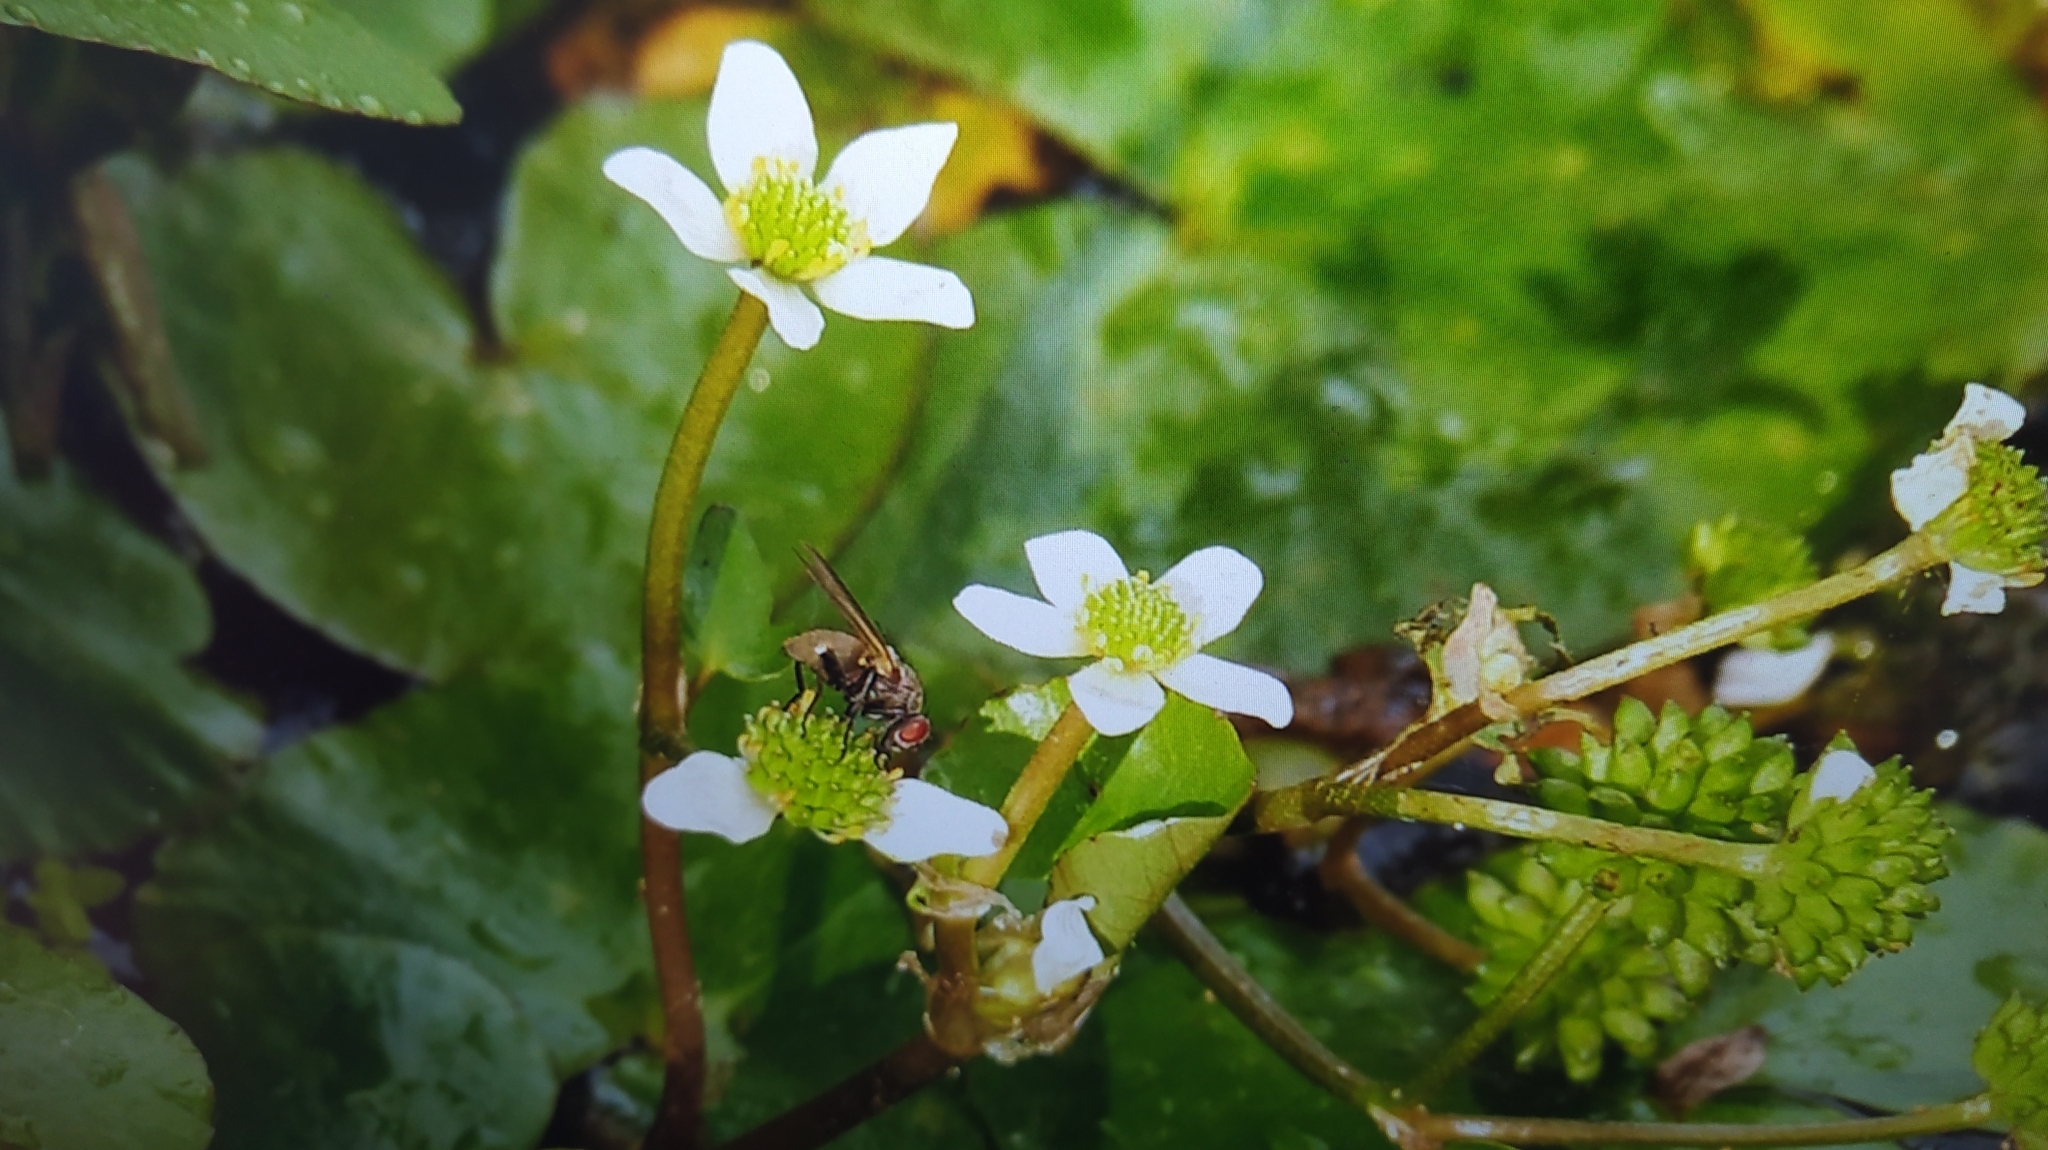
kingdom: Plantae
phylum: Tracheophyta
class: Magnoliopsida
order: Ranunculales
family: Ranunculaceae
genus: Caltha
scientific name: Caltha natans
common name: Floating marsh marigold
